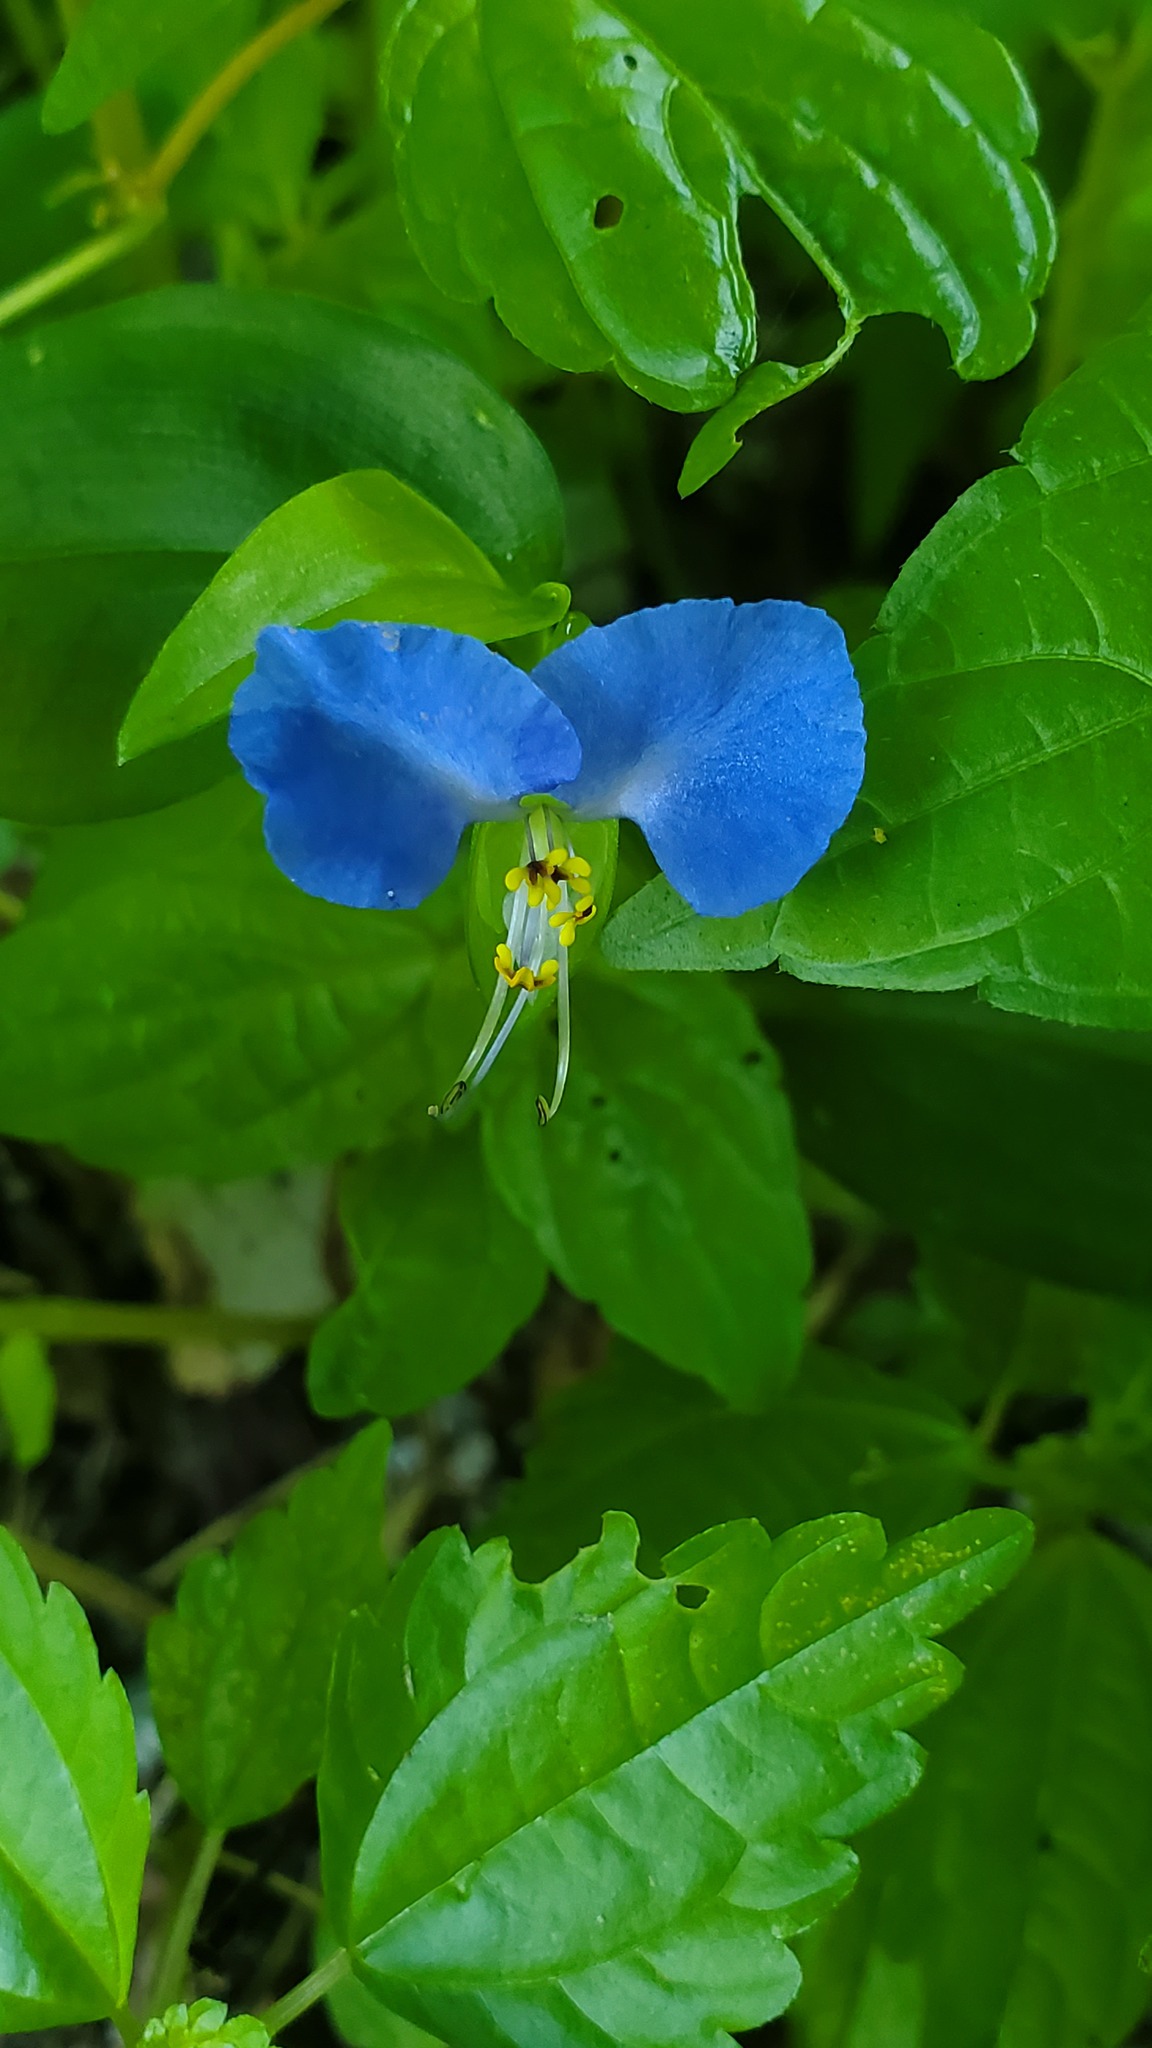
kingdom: Plantae
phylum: Tracheophyta
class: Liliopsida
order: Commelinales
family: Commelinaceae
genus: Commelina
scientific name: Commelina communis
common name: Asiatic dayflower
